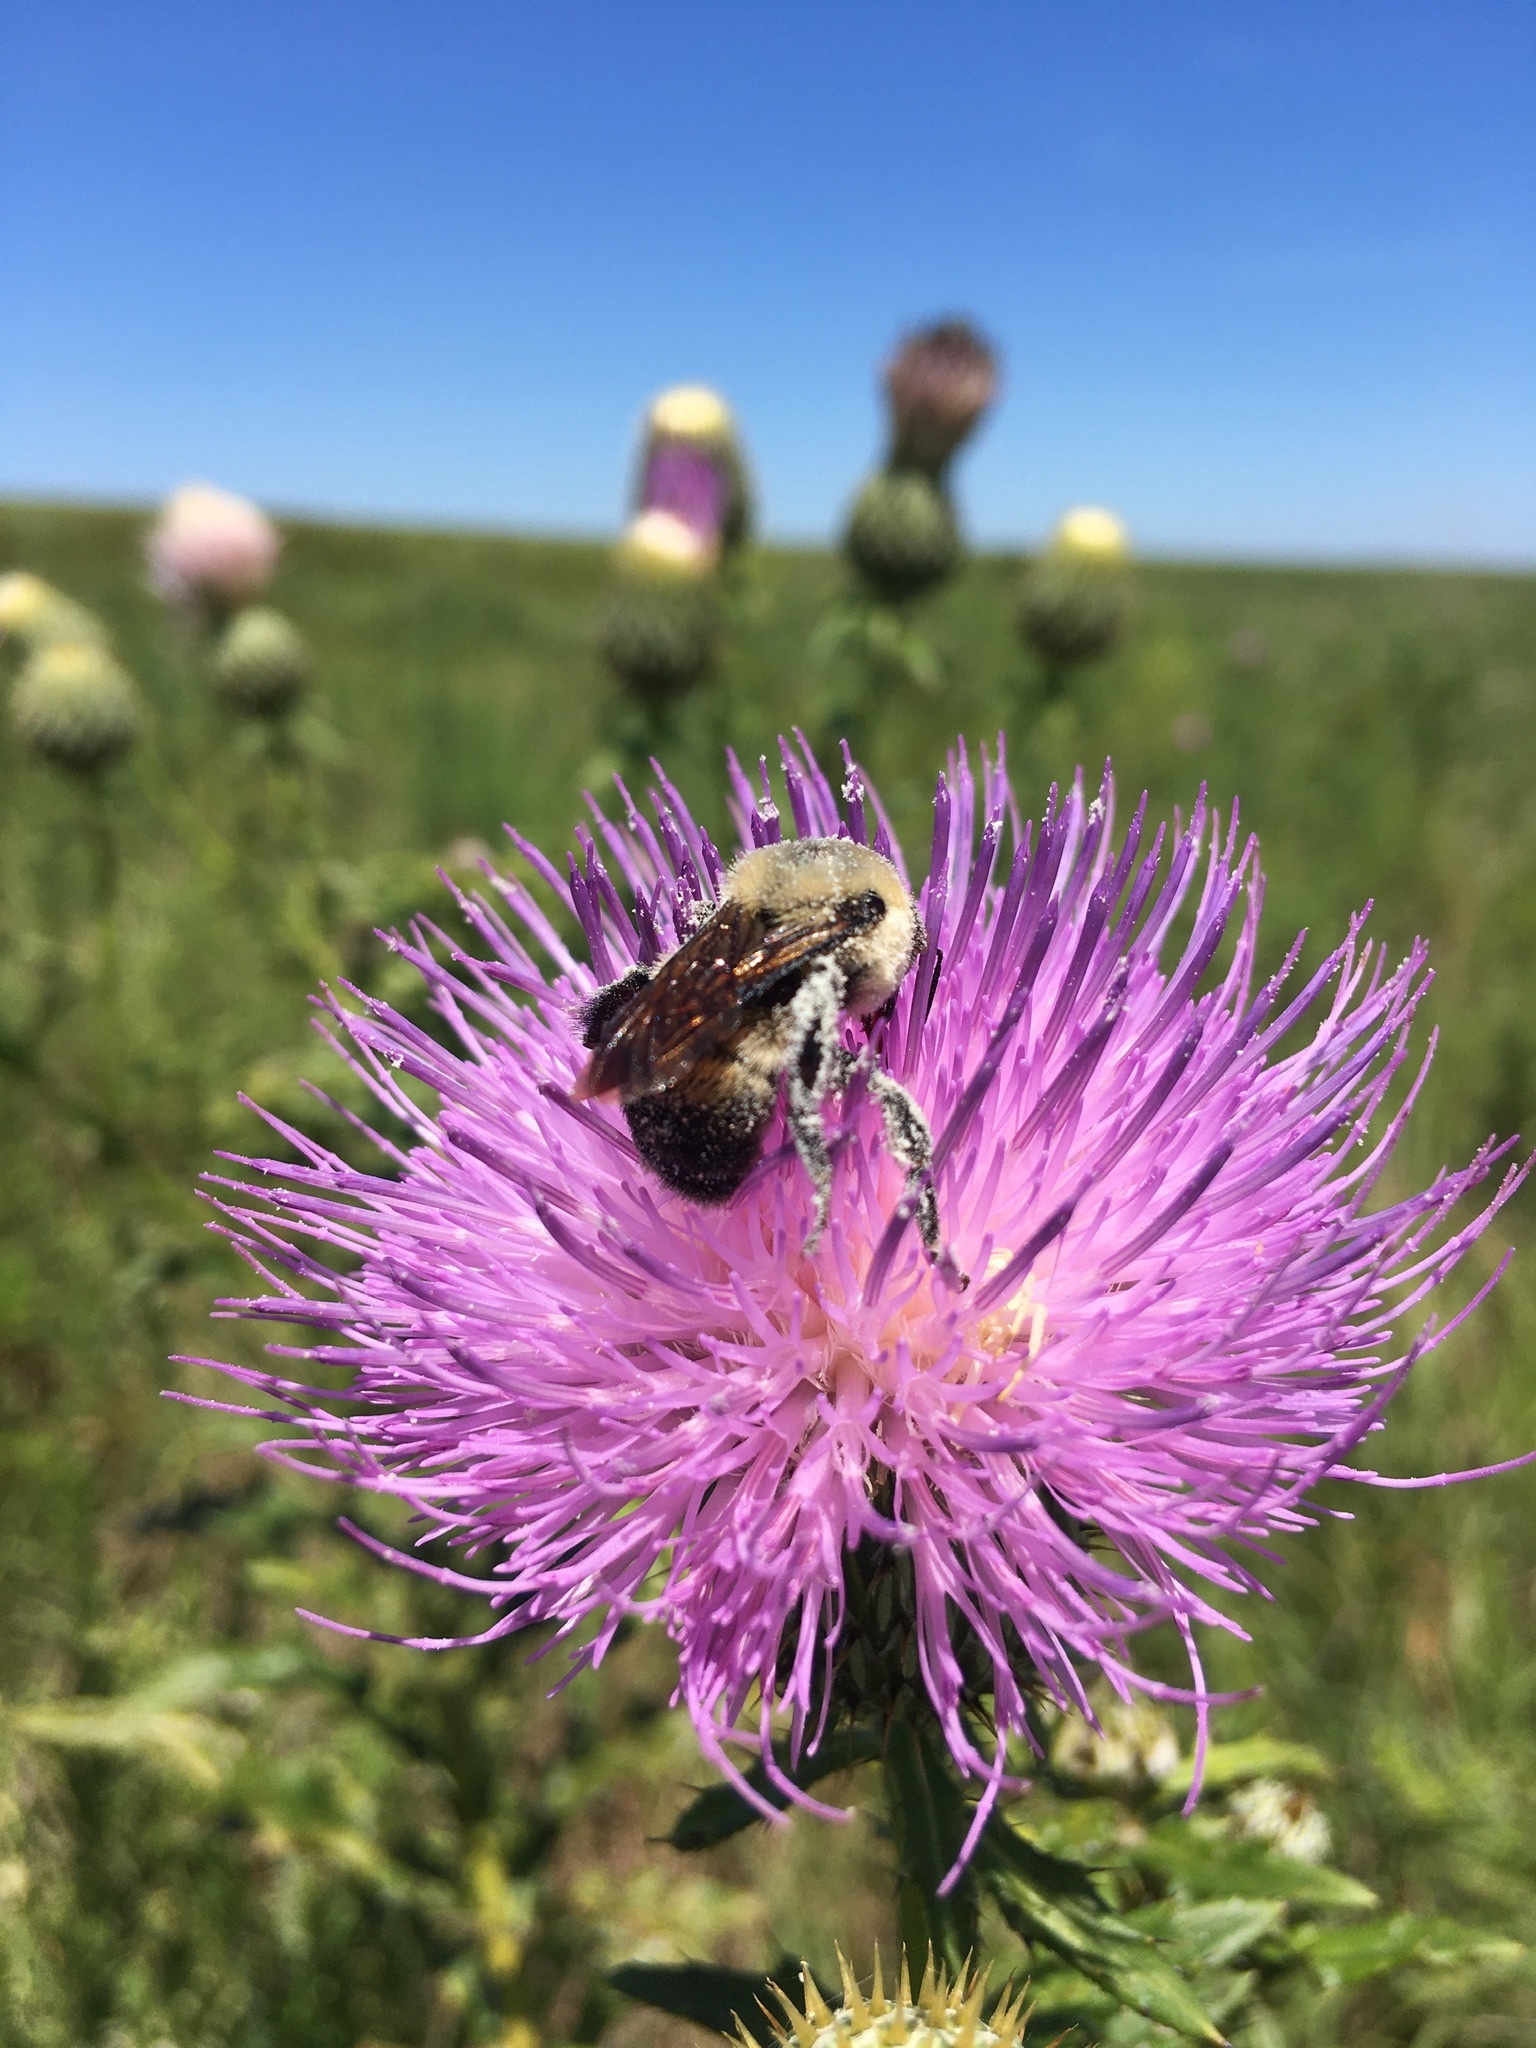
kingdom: Animalia
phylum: Arthropoda
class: Insecta
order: Hymenoptera
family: Apidae
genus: Bombus
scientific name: Bombus griseocollis
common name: Brown-belted bumble bee
